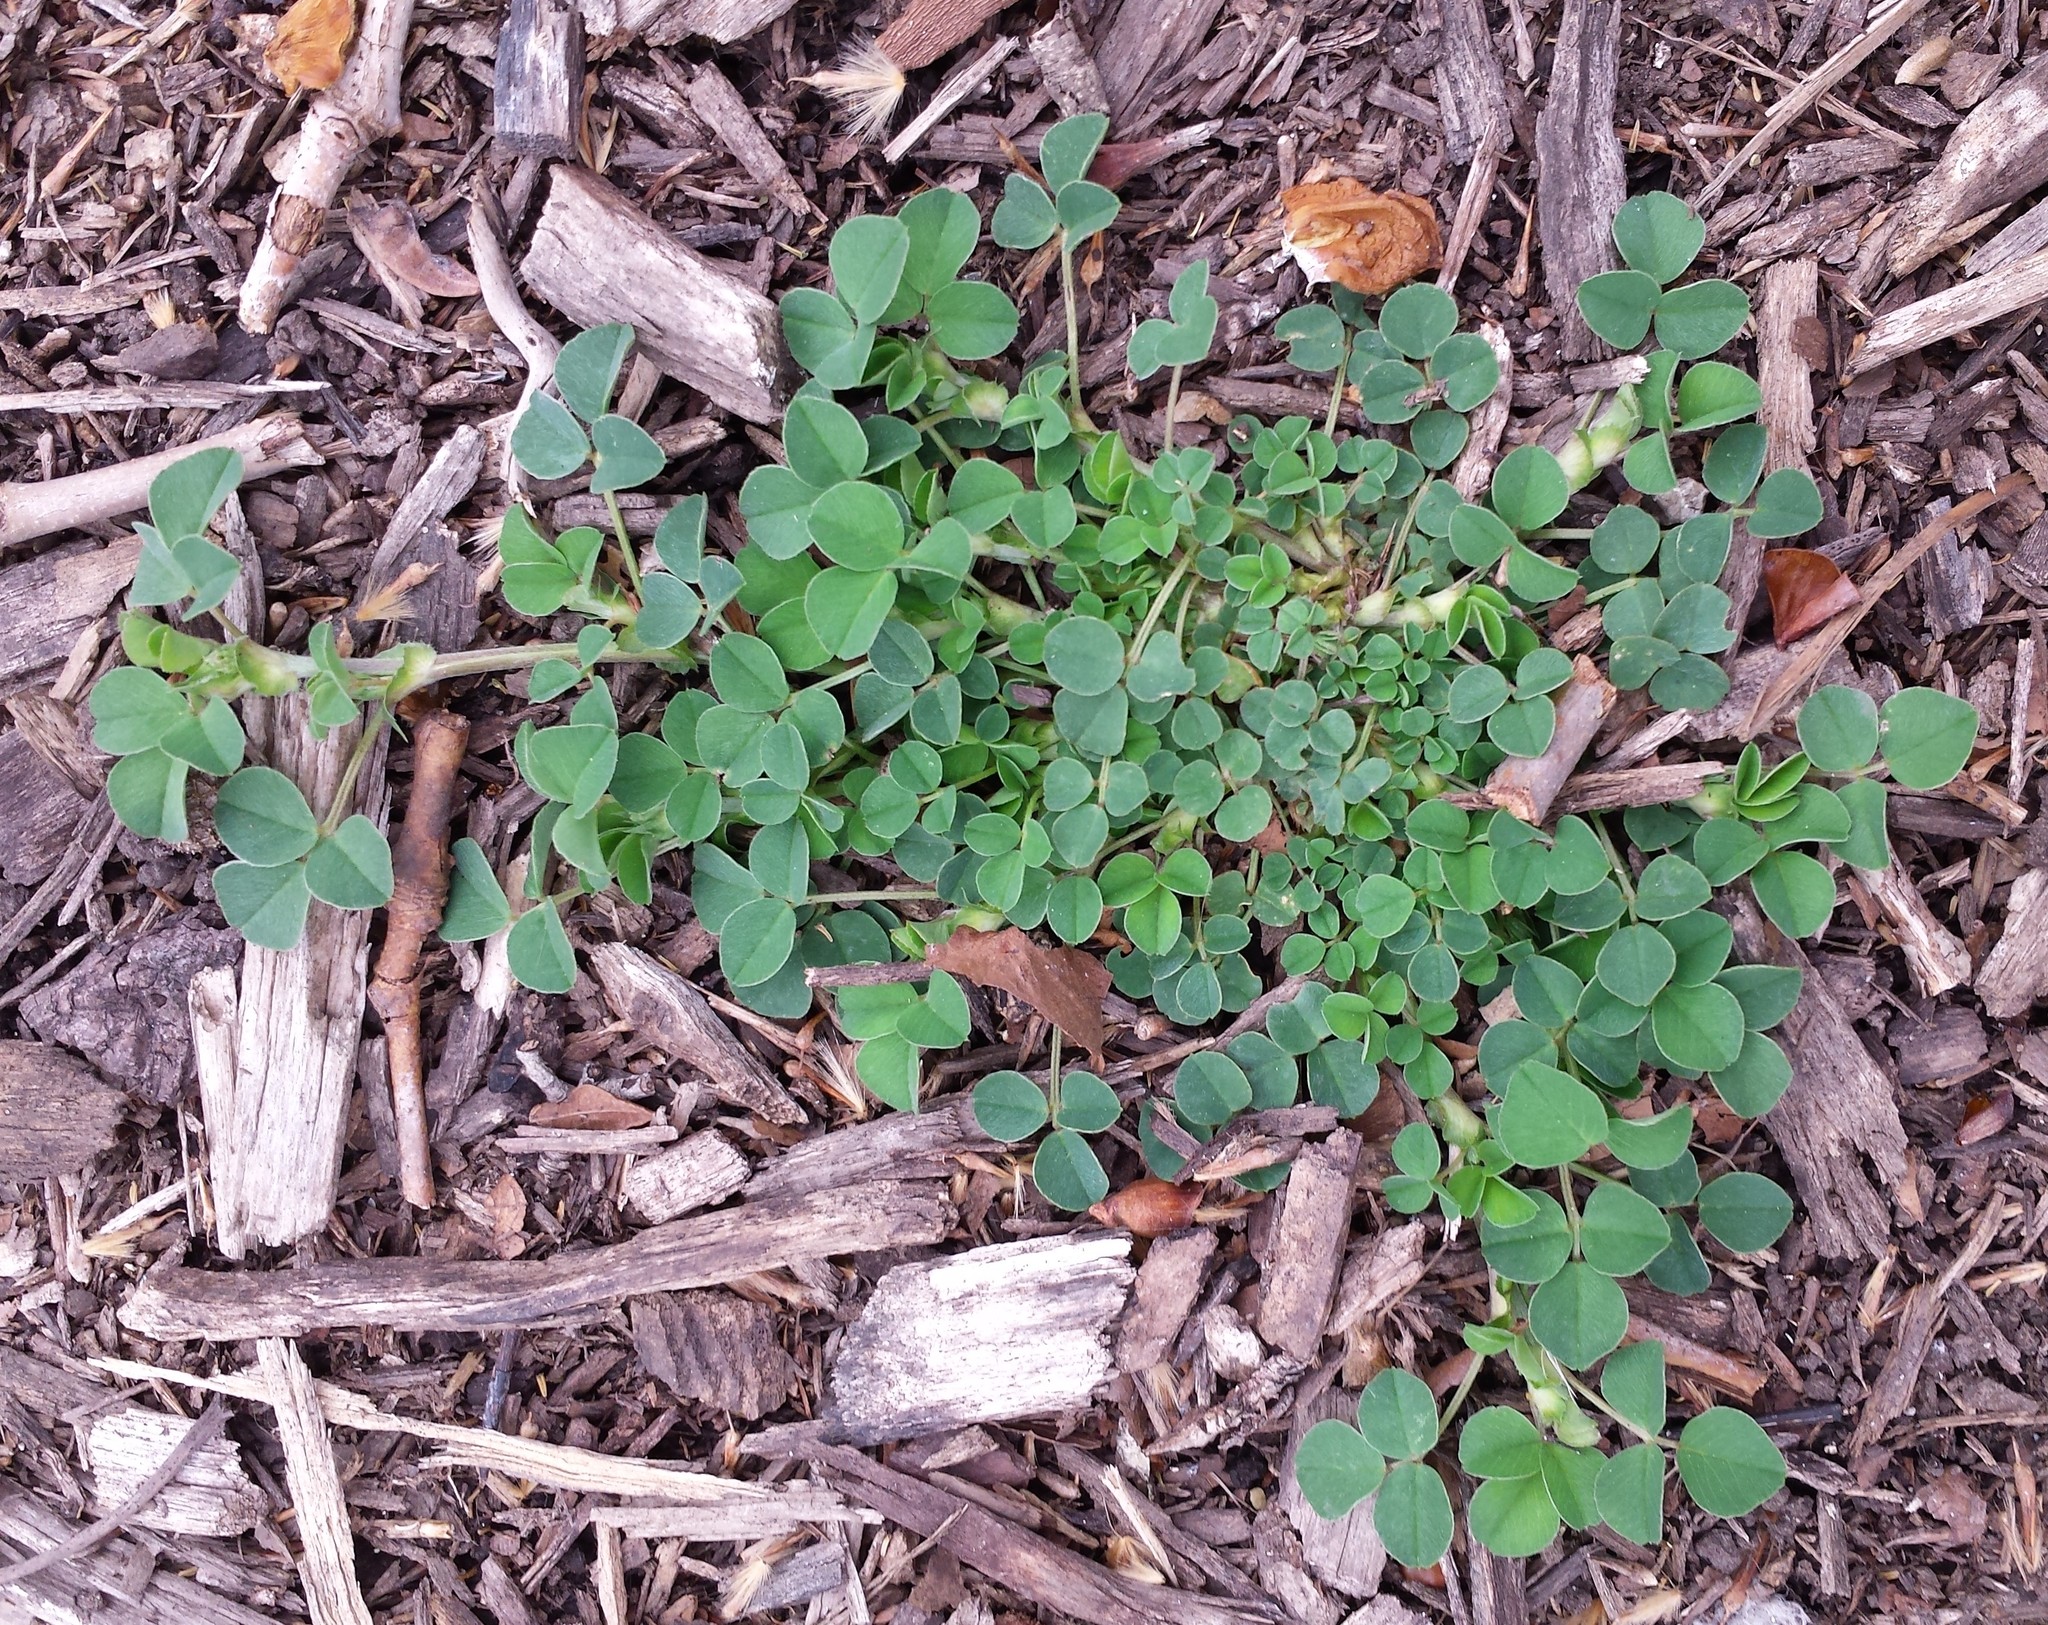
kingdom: Plantae
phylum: Tracheophyta
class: Magnoliopsida
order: Fabales
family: Fabaceae
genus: Medicago
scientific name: Medicago lupulina
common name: Black medick
